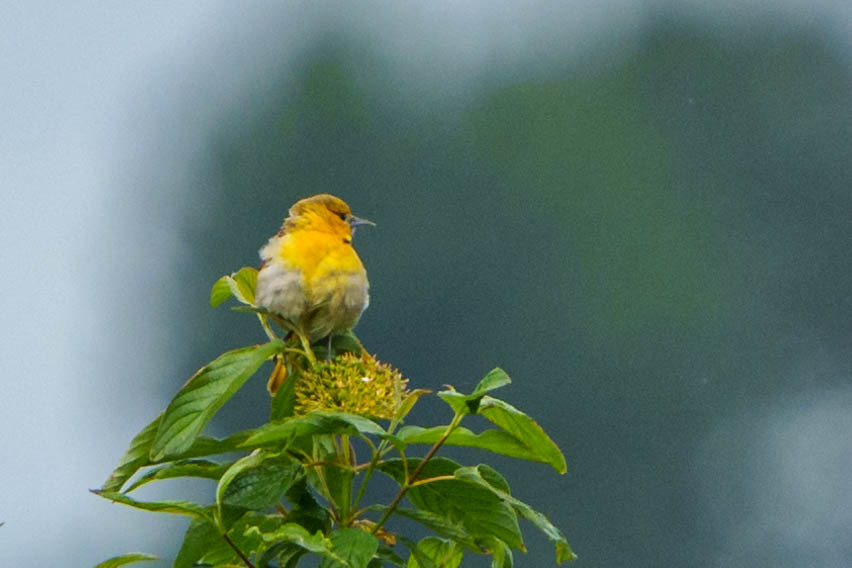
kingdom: Animalia
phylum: Chordata
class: Aves
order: Passeriformes
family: Icteridae
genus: Icterus
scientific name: Icterus bullockii
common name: Bullock's oriole
